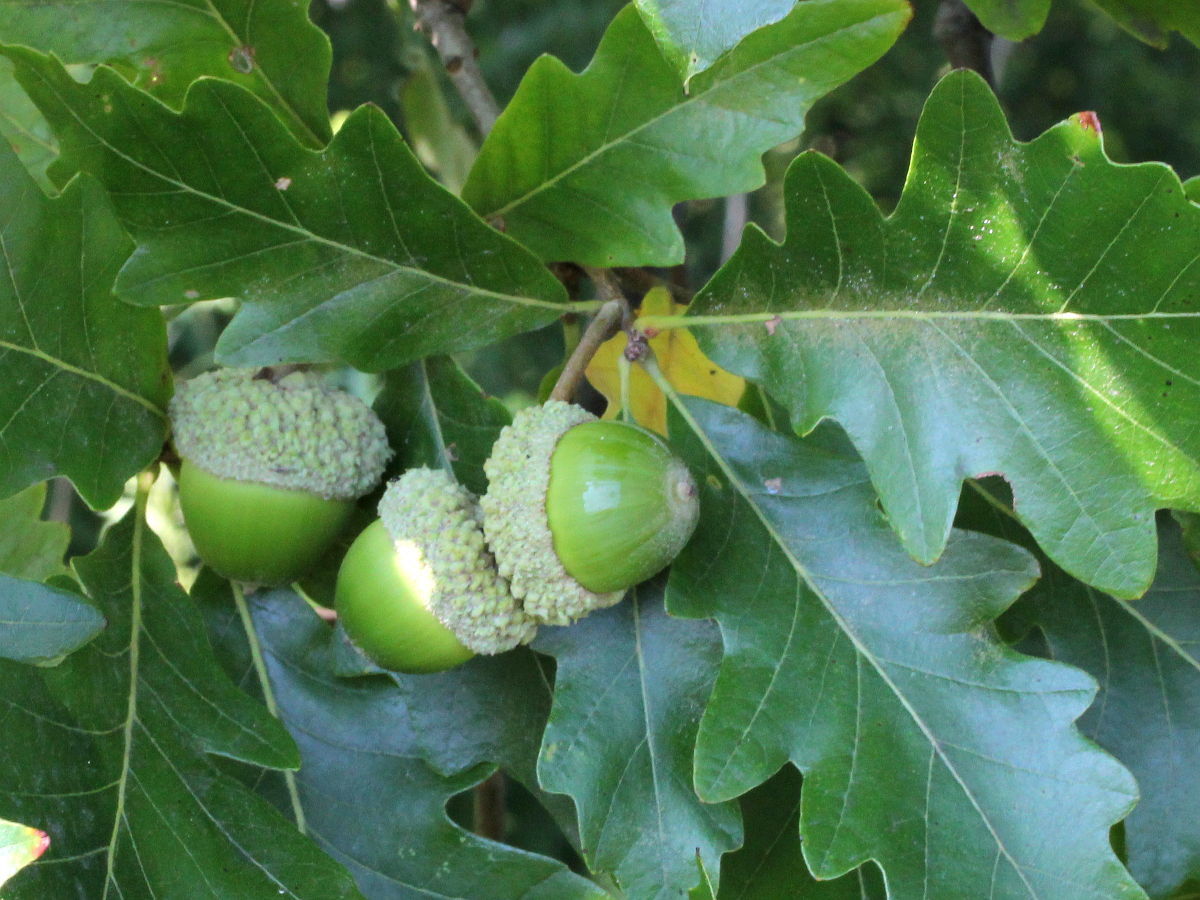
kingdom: Plantae
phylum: Tracheophyta
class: Magnoliopsida
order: Fagales
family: Fagaceae
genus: Quercus
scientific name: Quercus bicolor
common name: Swamp white oak
